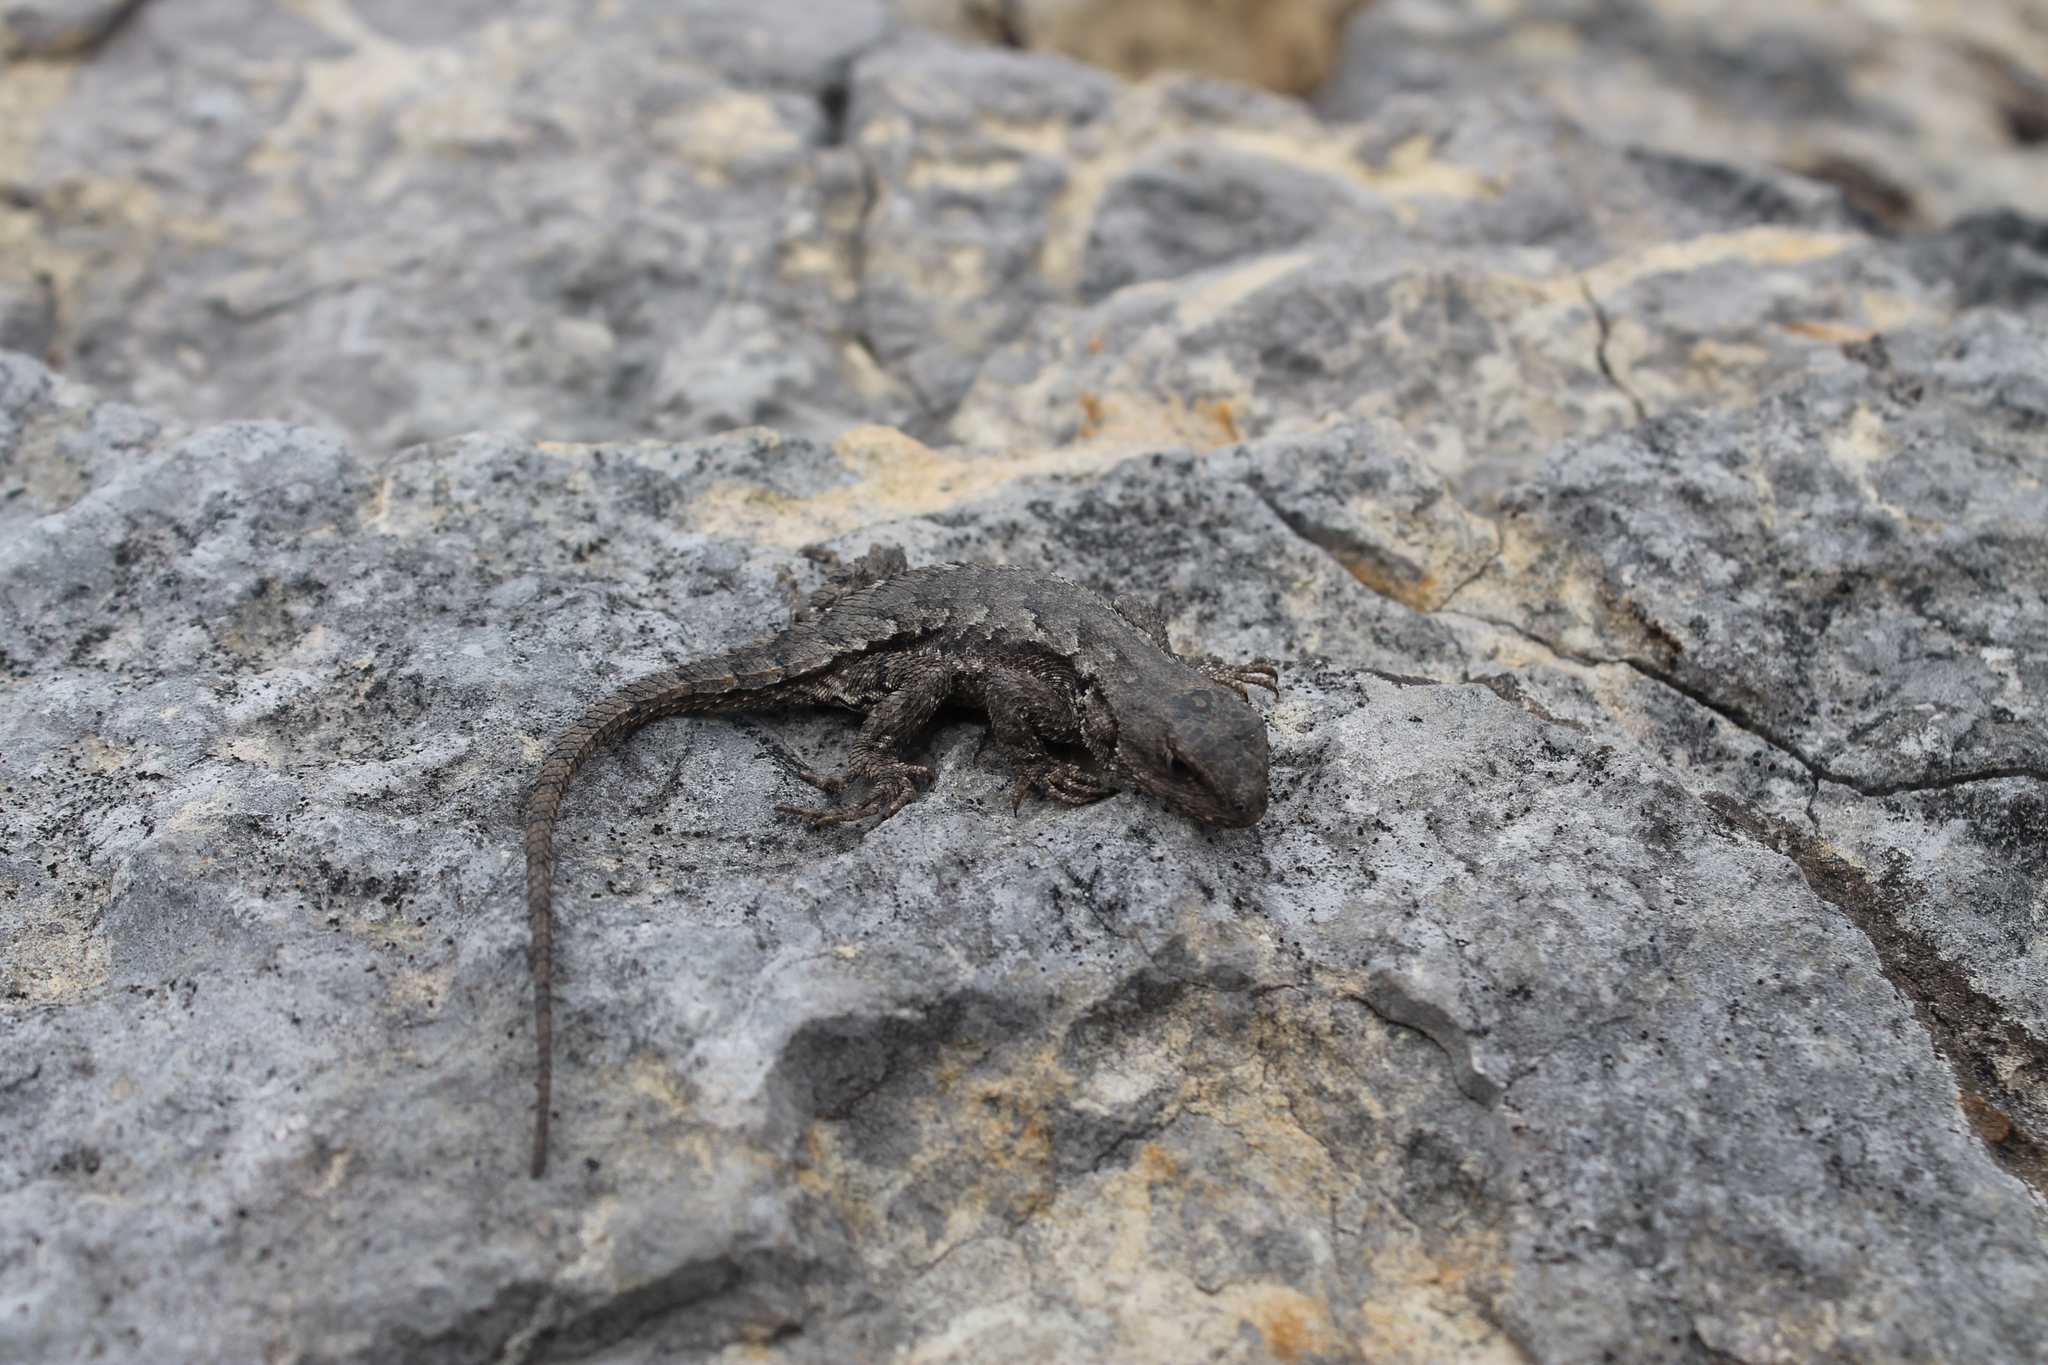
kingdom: Animalia
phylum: Chordata
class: Squamata
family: Phrynosomatidae
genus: Sceloporus
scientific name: Sceloporus undulatus
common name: Eastern fence lizard
